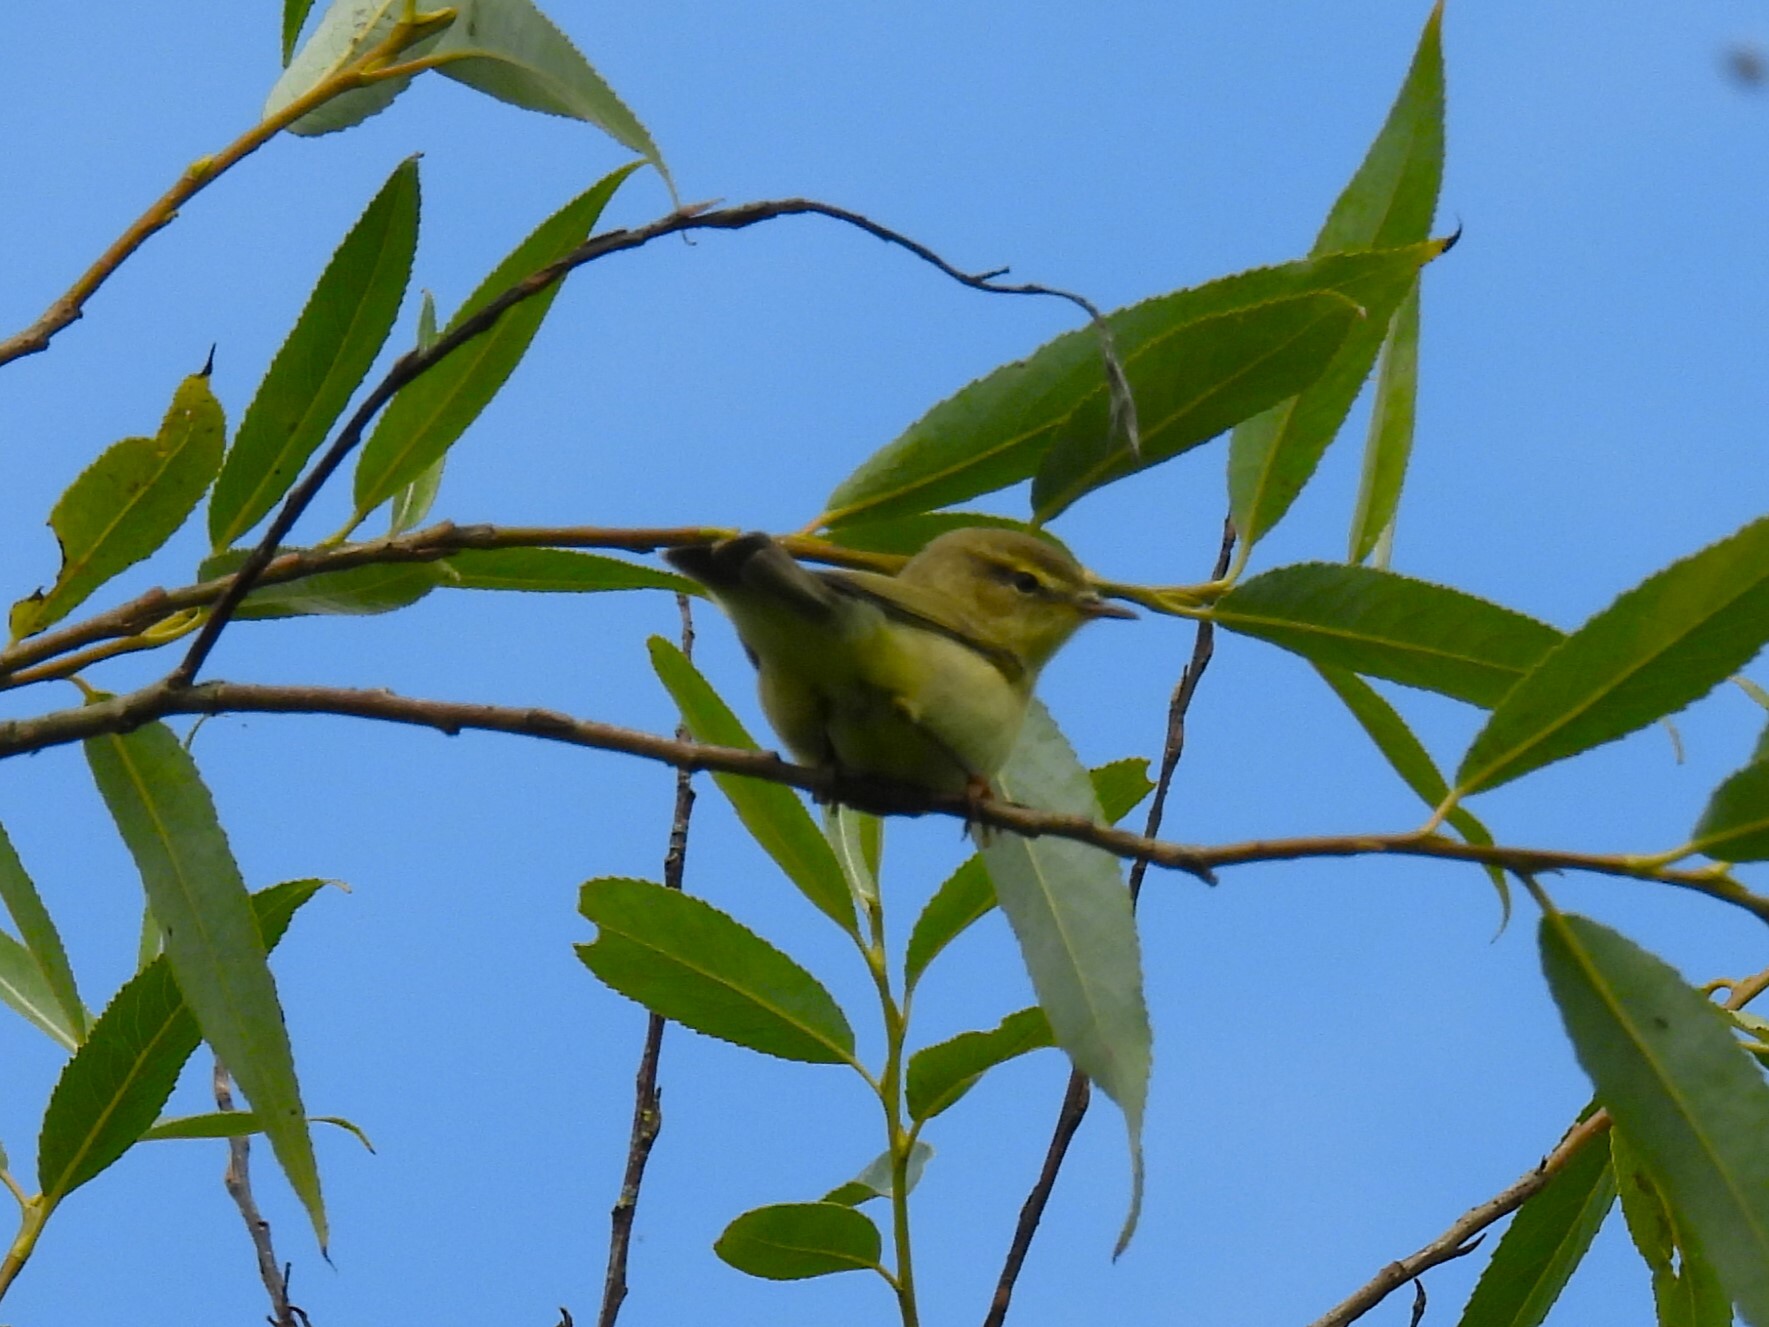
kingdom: Animalia
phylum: Chordata
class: Aves
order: Passeriformes
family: Phylloscopidae
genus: Phylloscopus
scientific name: Phylloscopus trochilus
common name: Willow warbler
